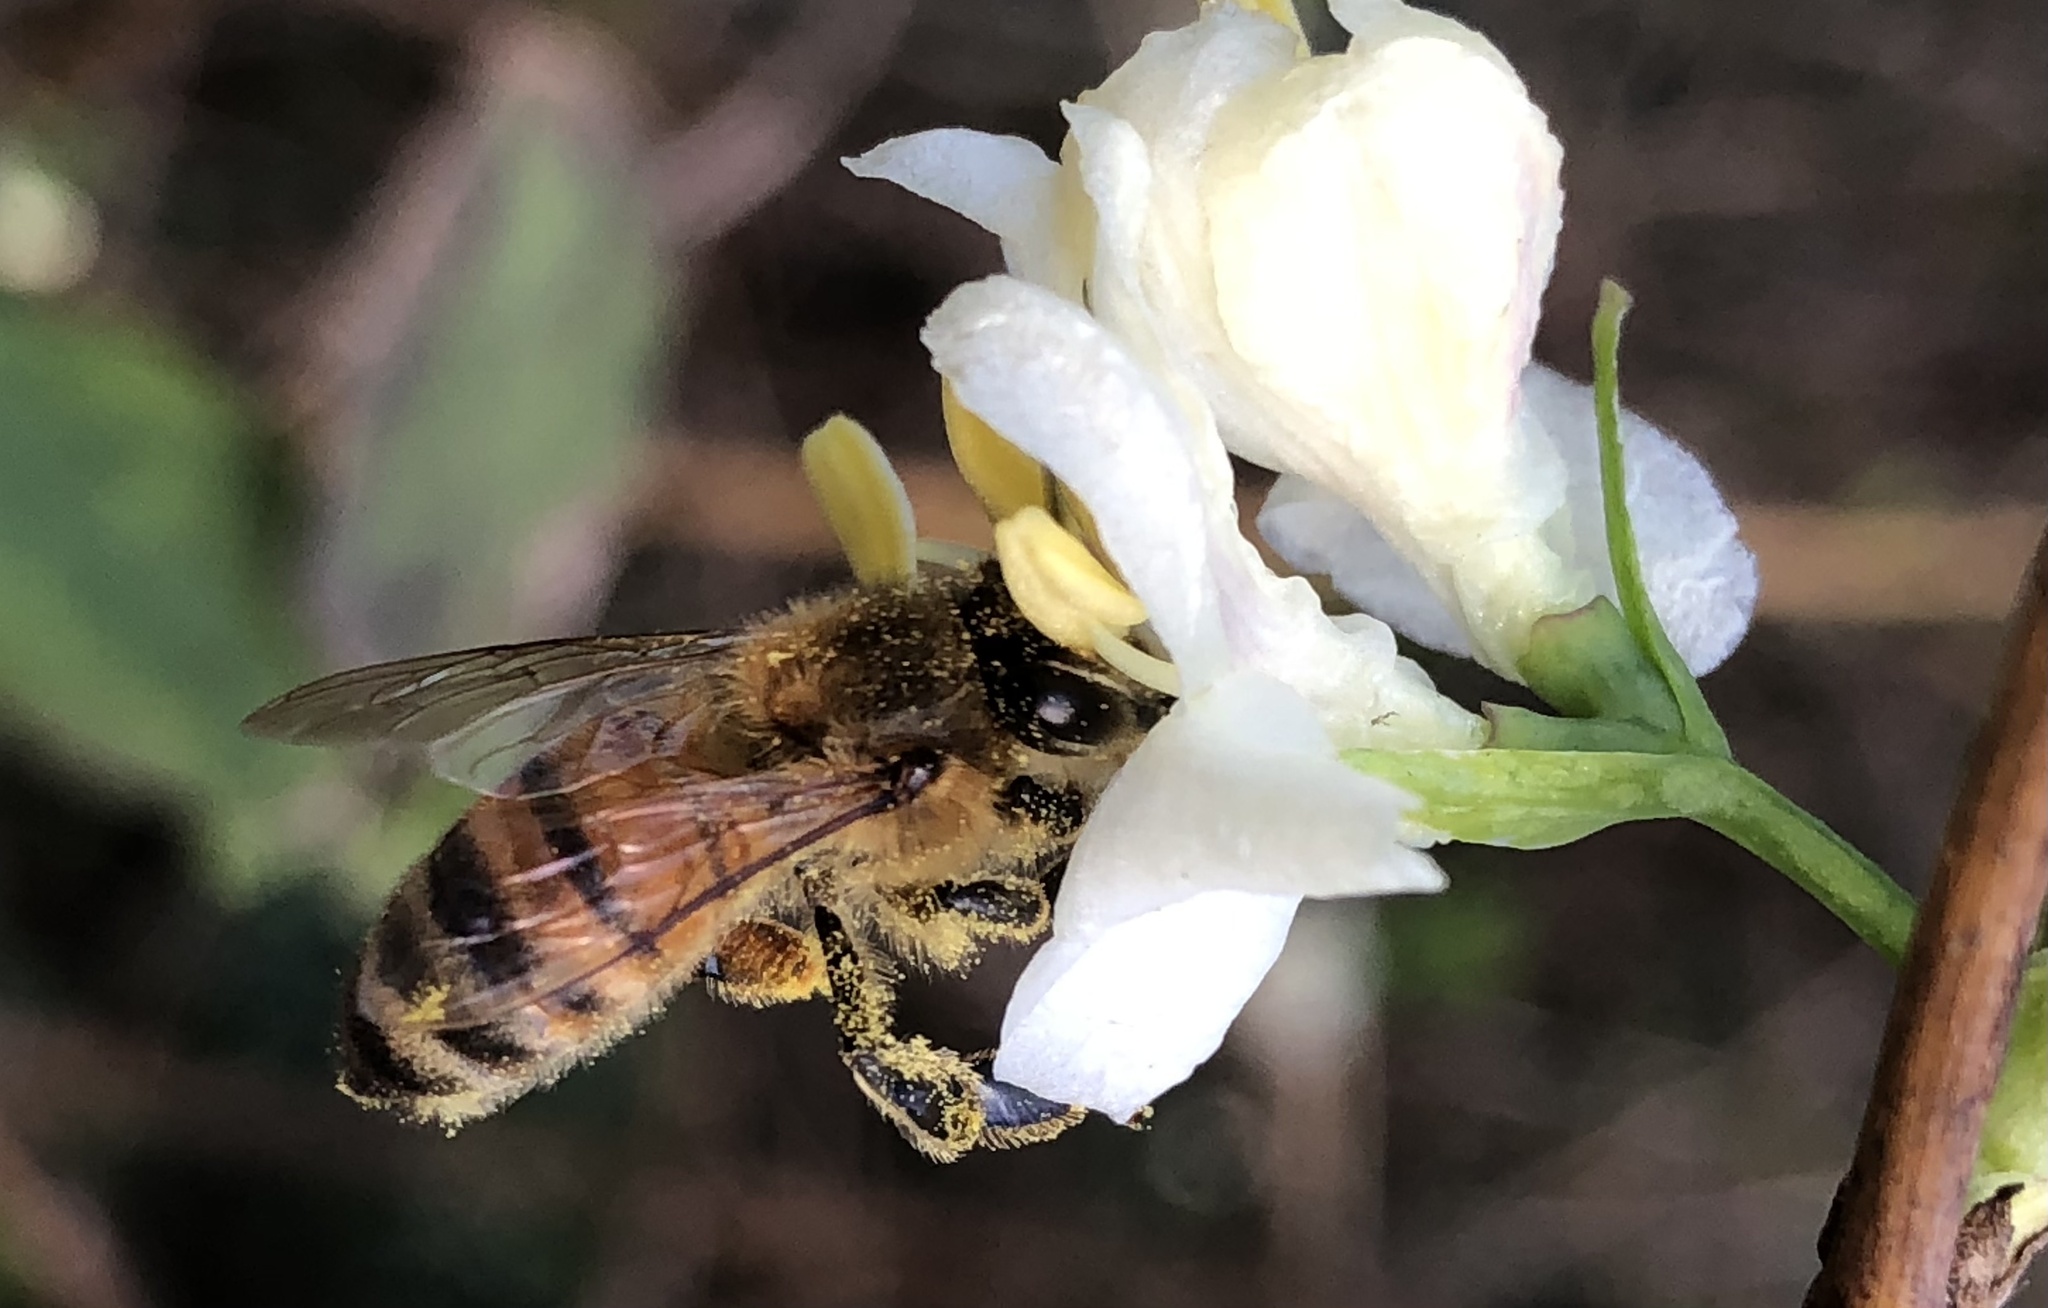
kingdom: Animalia
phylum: Arthropoda
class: Insecta
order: Hymenoptera
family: Apidae
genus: Apis
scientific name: Apis mellifera
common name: Honey bee
